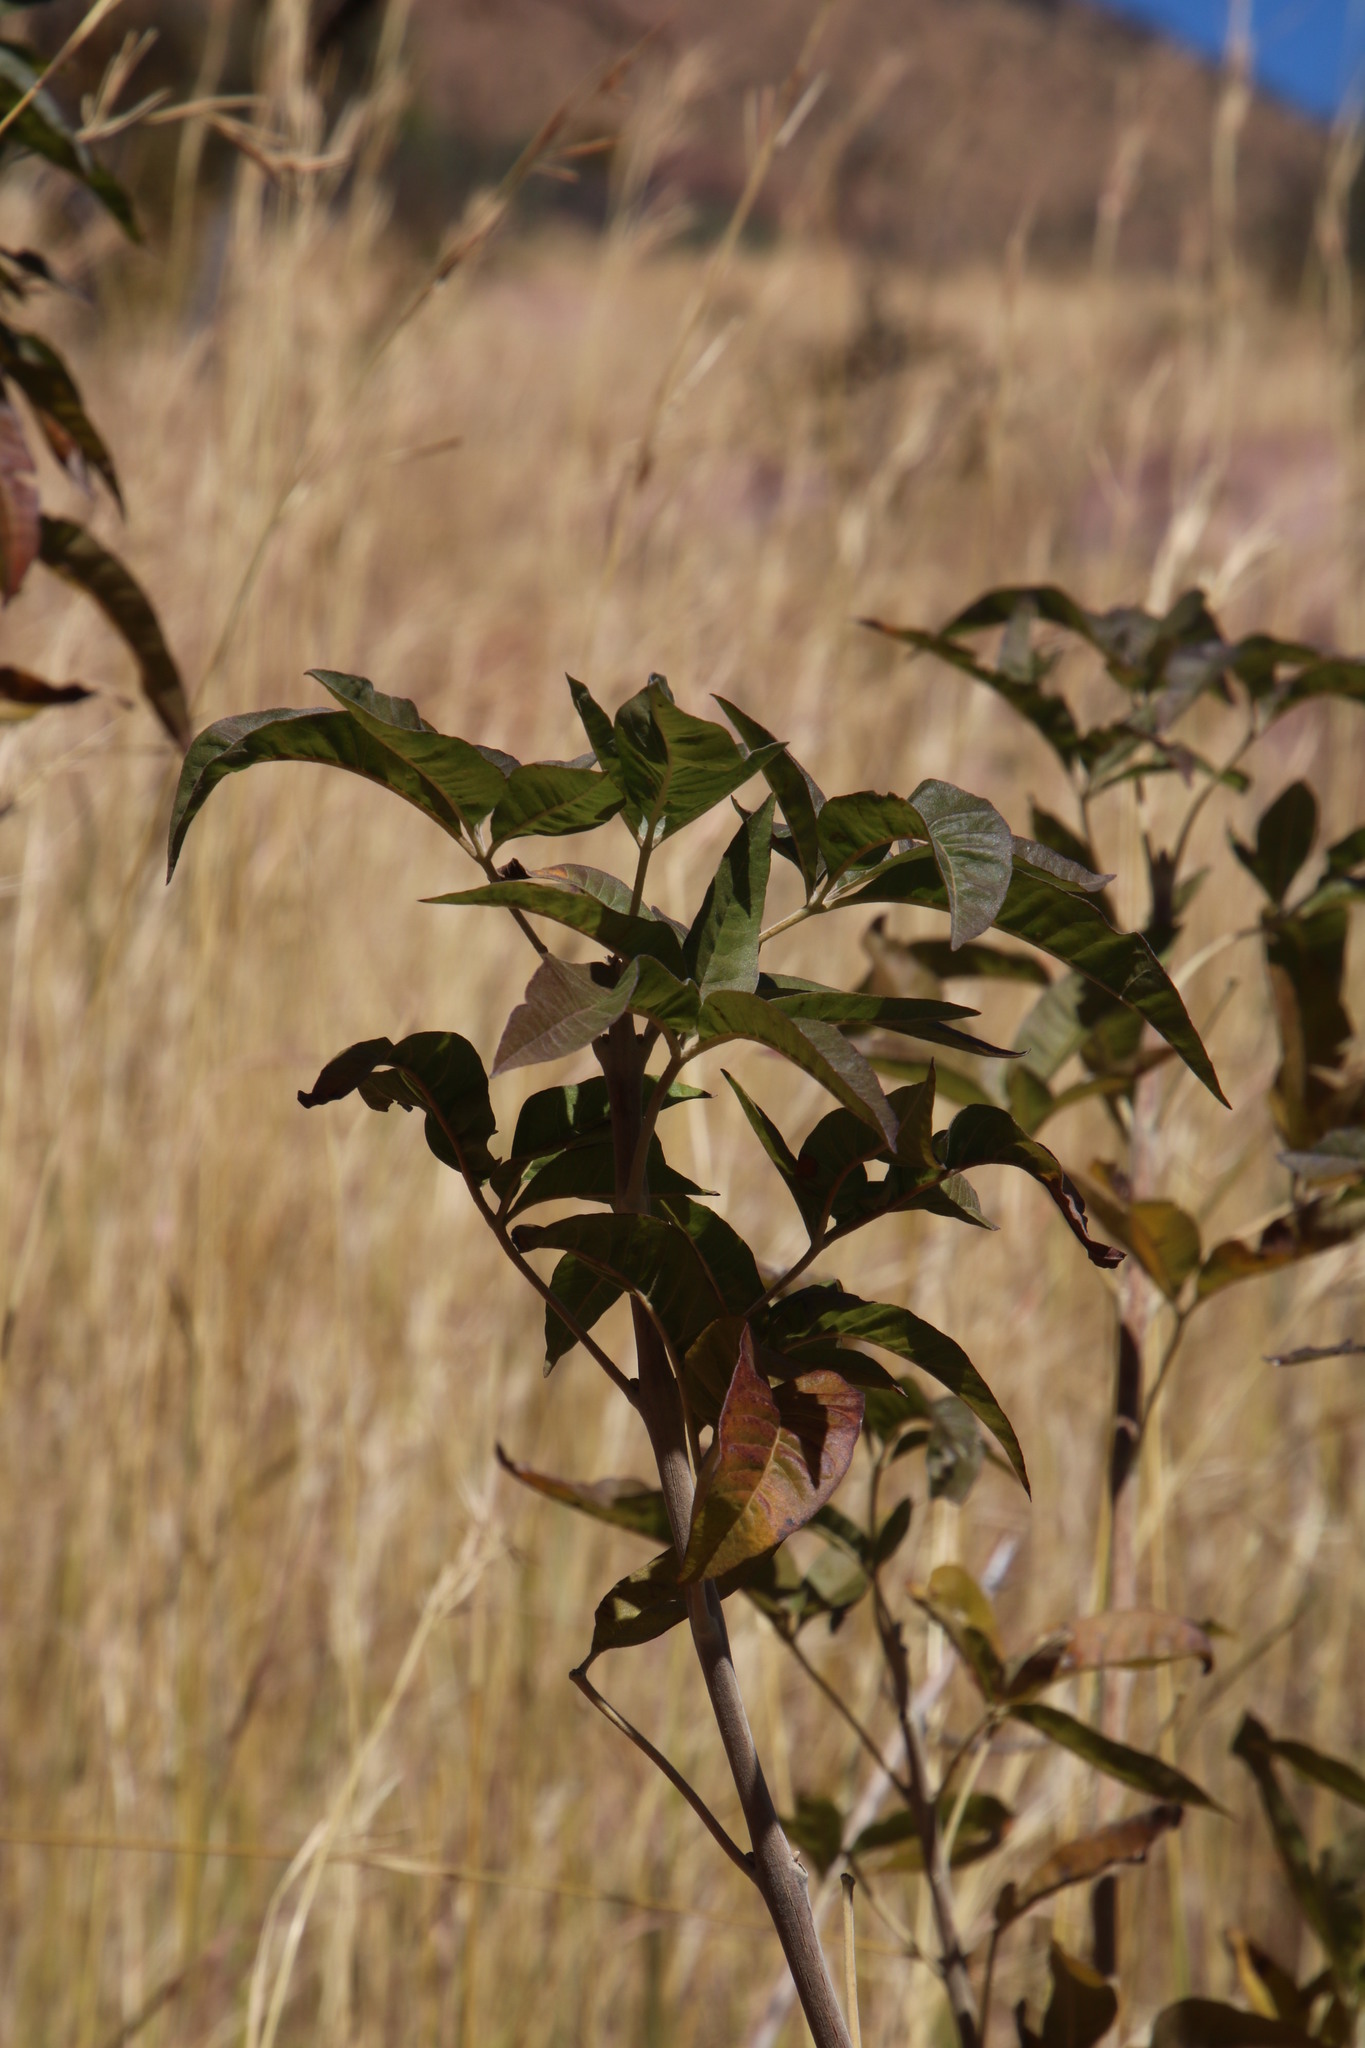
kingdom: Plantae
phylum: Tracheophyta
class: Magnoliopsida
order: Sapindales
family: Anacardiaceae
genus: Searsia
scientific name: Searsia montana
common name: Drakensberg karee
